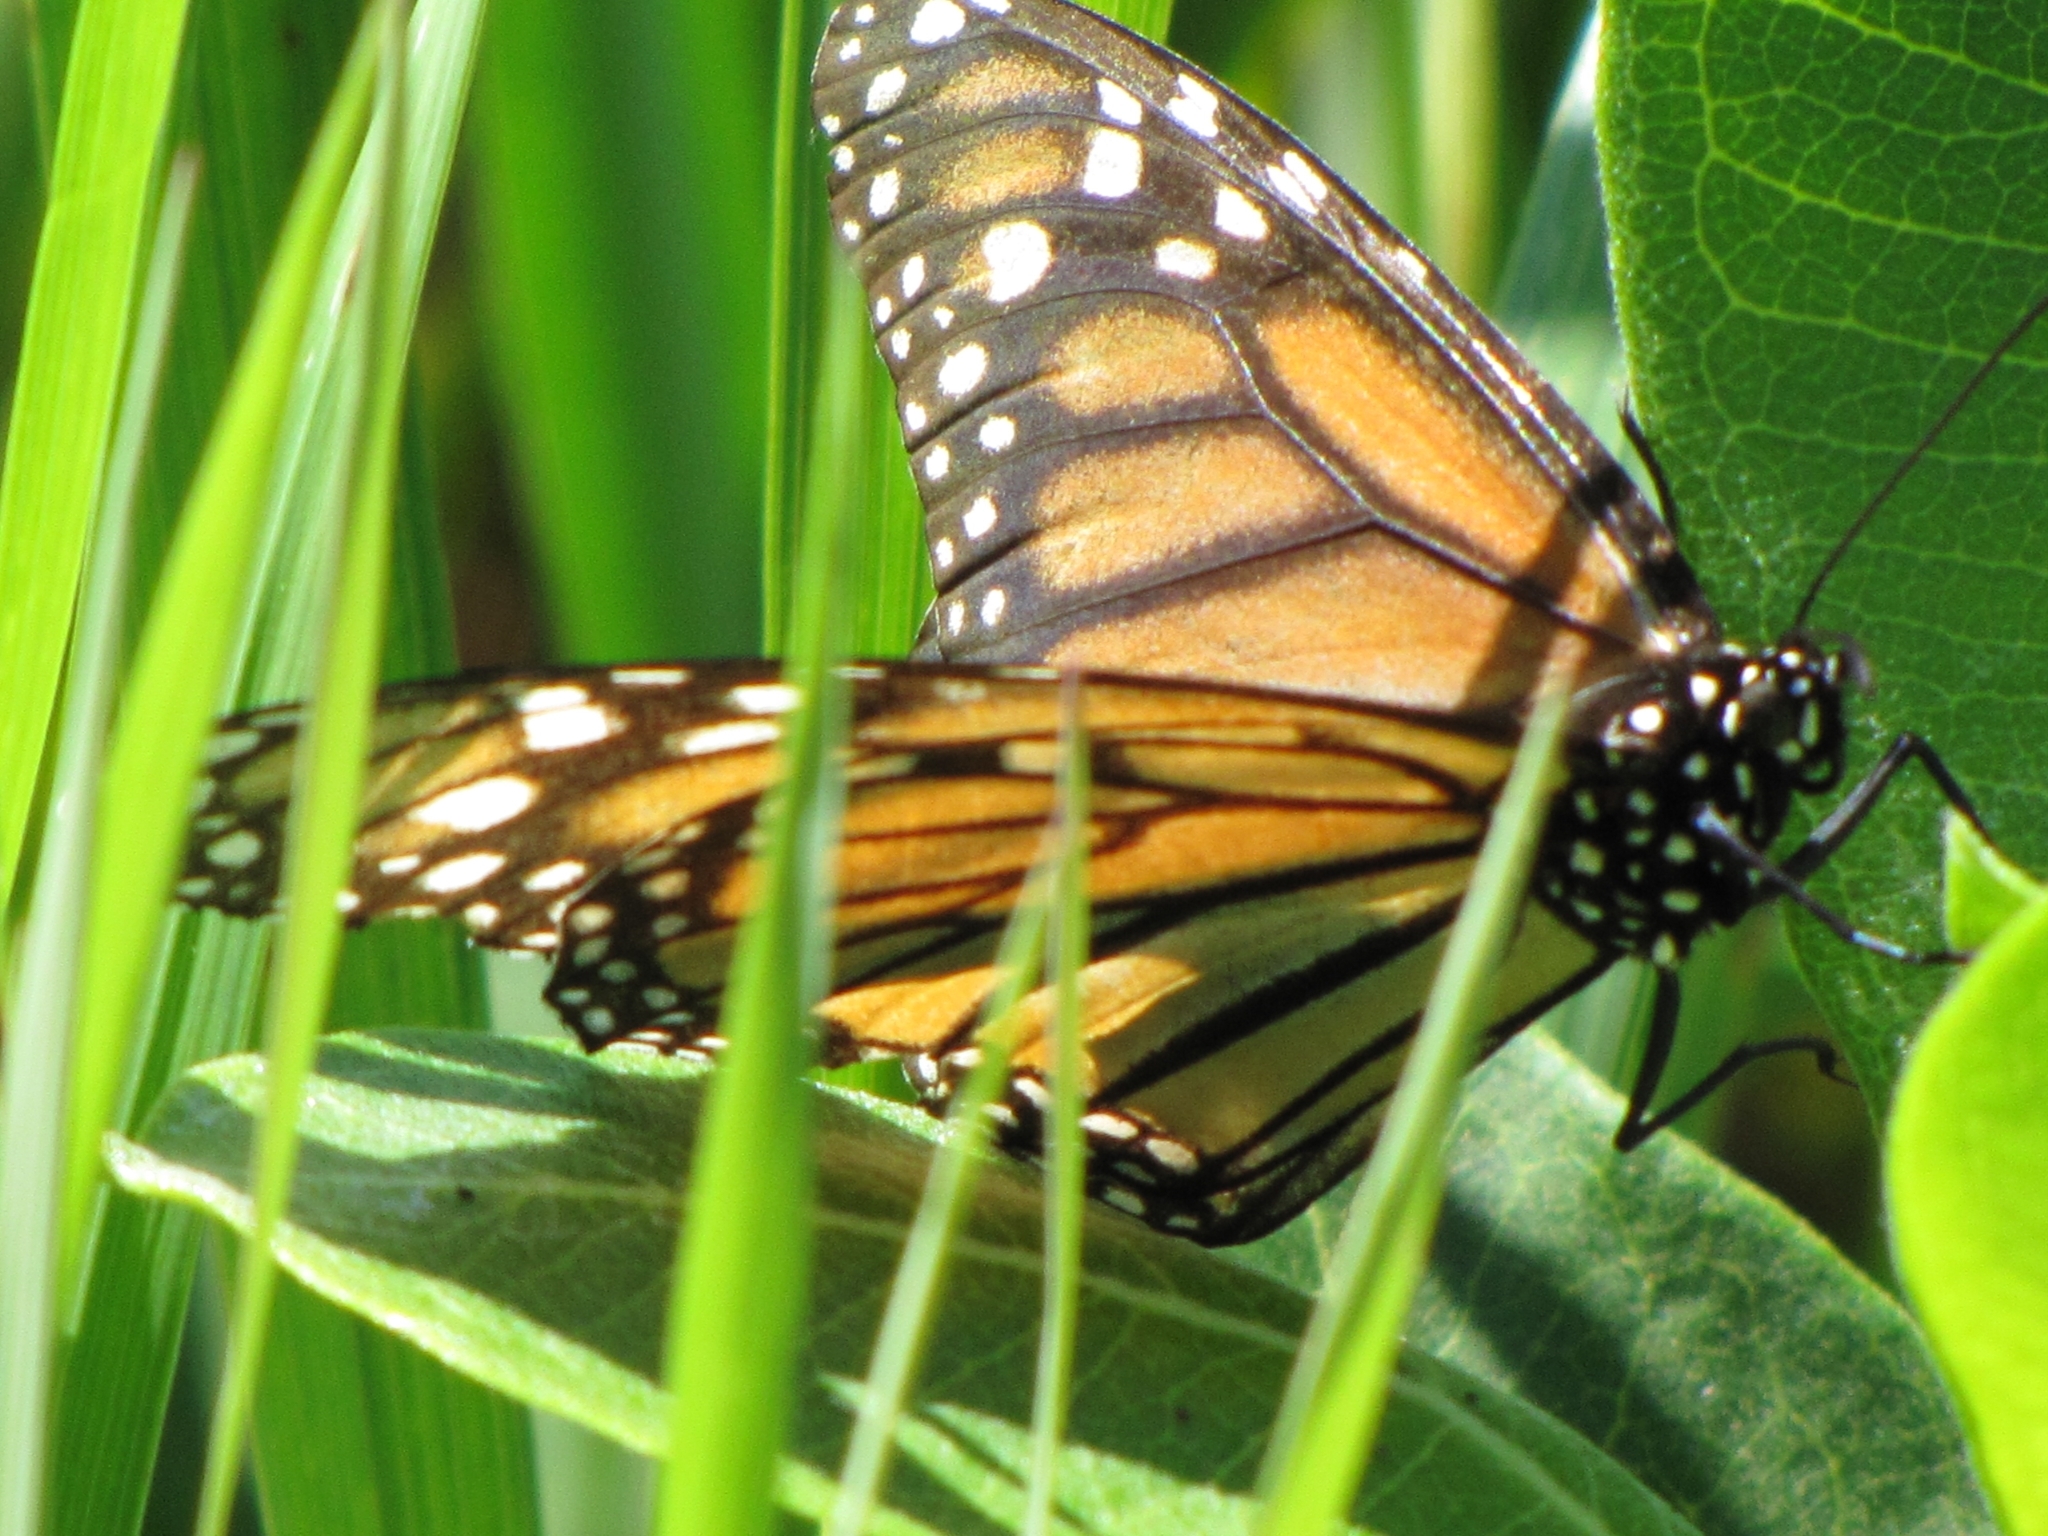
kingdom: Animalia
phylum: Arthropoda
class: Insecta
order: Lepidoptera
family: Nymphalidae
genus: Danaus
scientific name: Danaus plexippus
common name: Monarch
